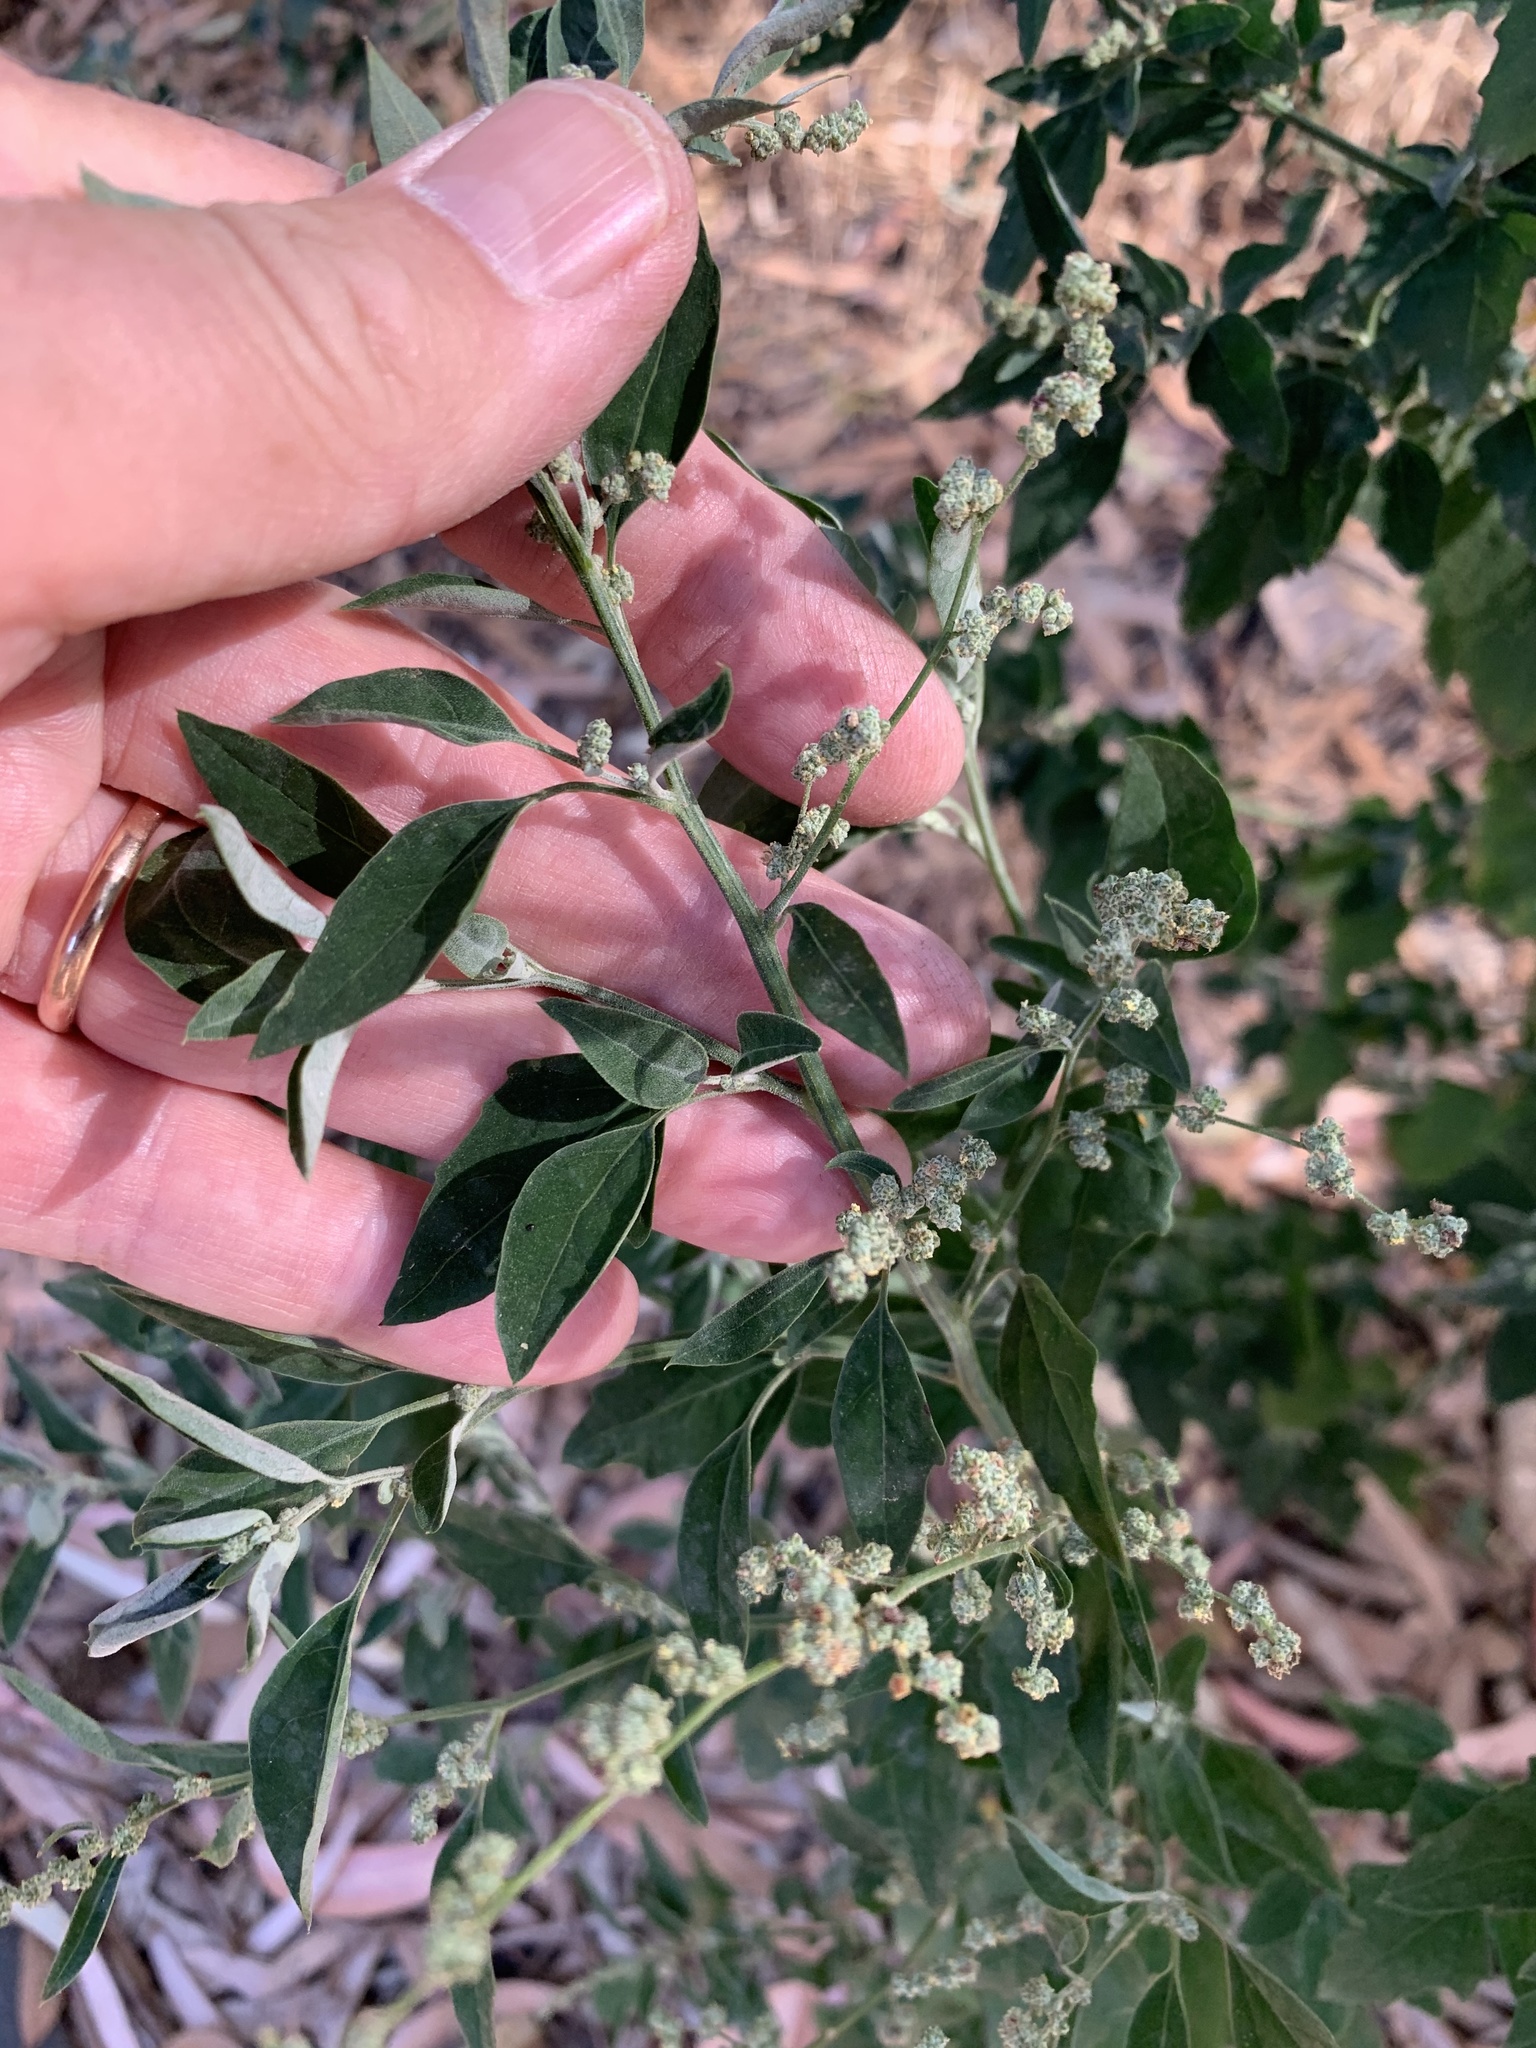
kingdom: Plantae
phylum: Tracheophyta
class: Magnoliopsida
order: Caryophyllales
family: Amaranthaceae
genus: Chenopodium
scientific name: Chenopodium album
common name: Fat-hen
